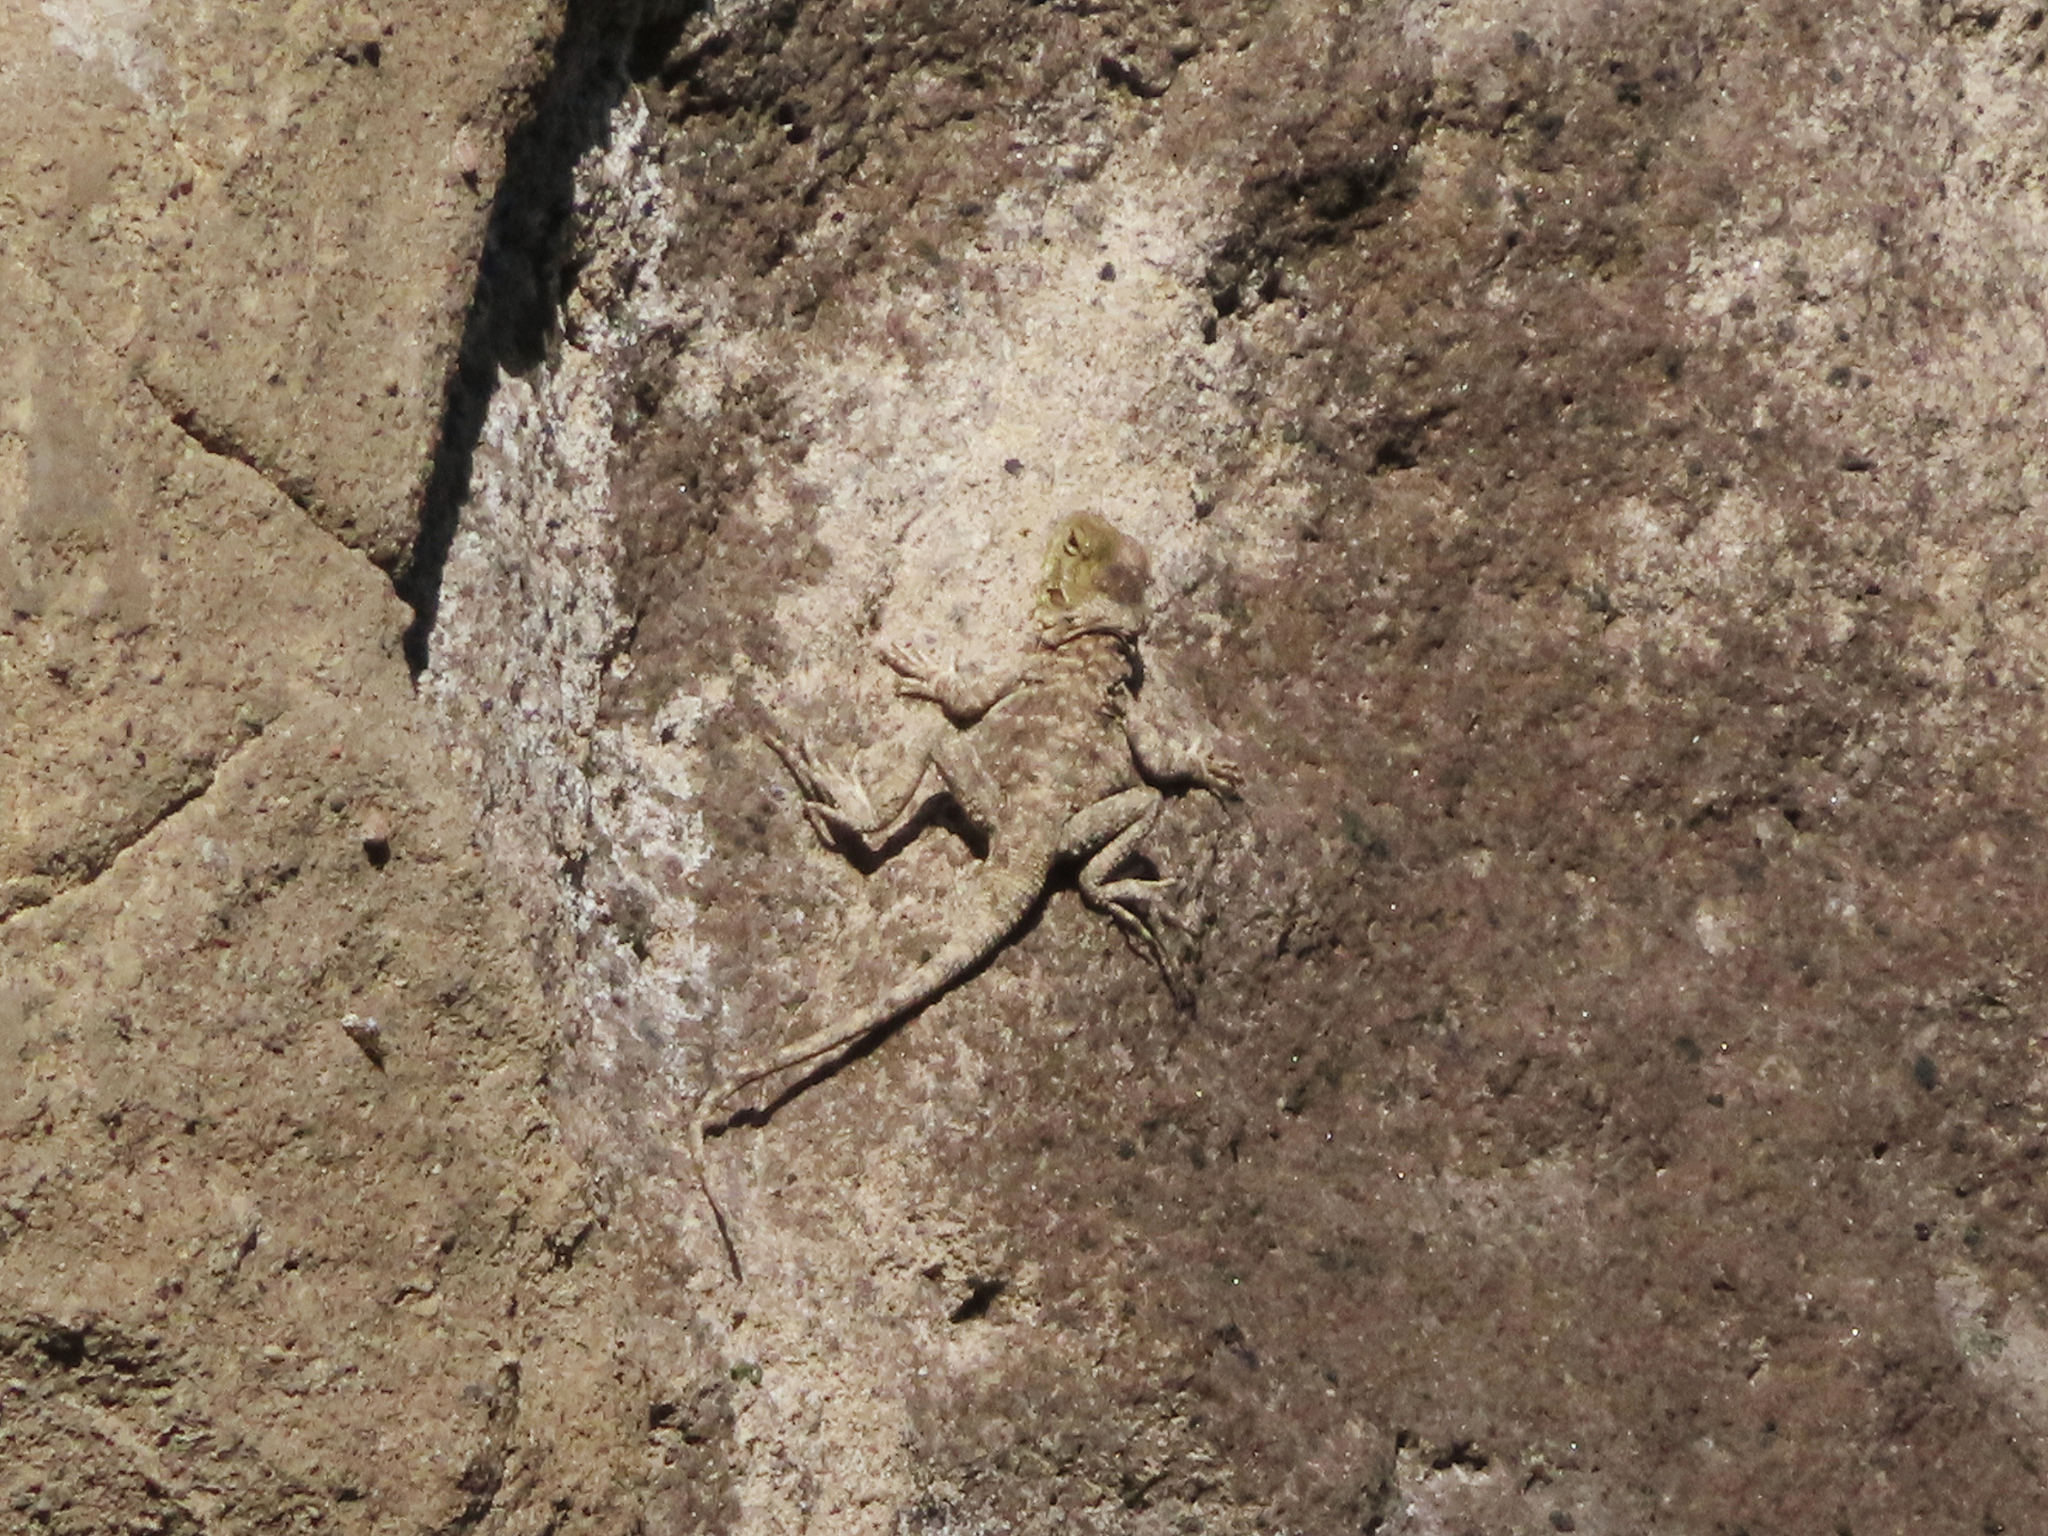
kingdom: Animalia
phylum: Chordata
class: Squamata
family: Agamidae
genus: Paralaudakia
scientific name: Paralaudakia caucasia
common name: Caucasian agama
